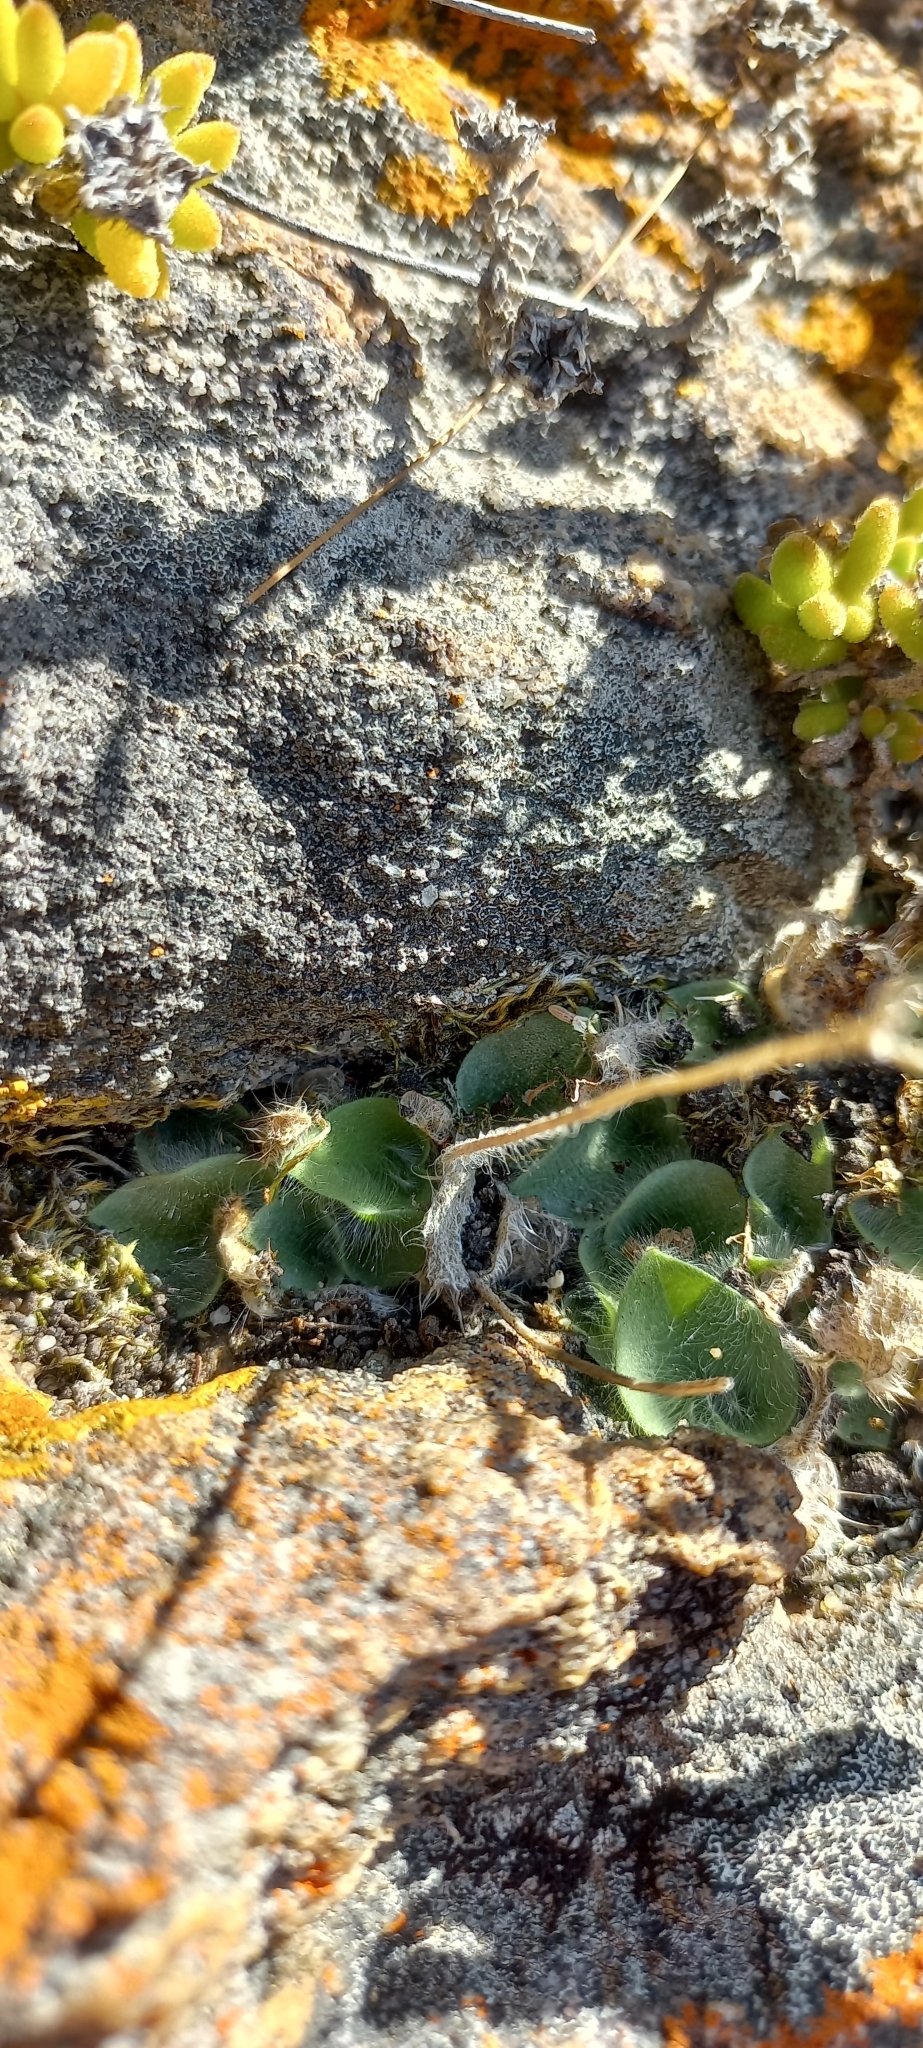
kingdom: Plantae
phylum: Tracheophyta
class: Liliopsida
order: Asparagales
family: Orchidaceae
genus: Holothrix
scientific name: Holothrix villosa
